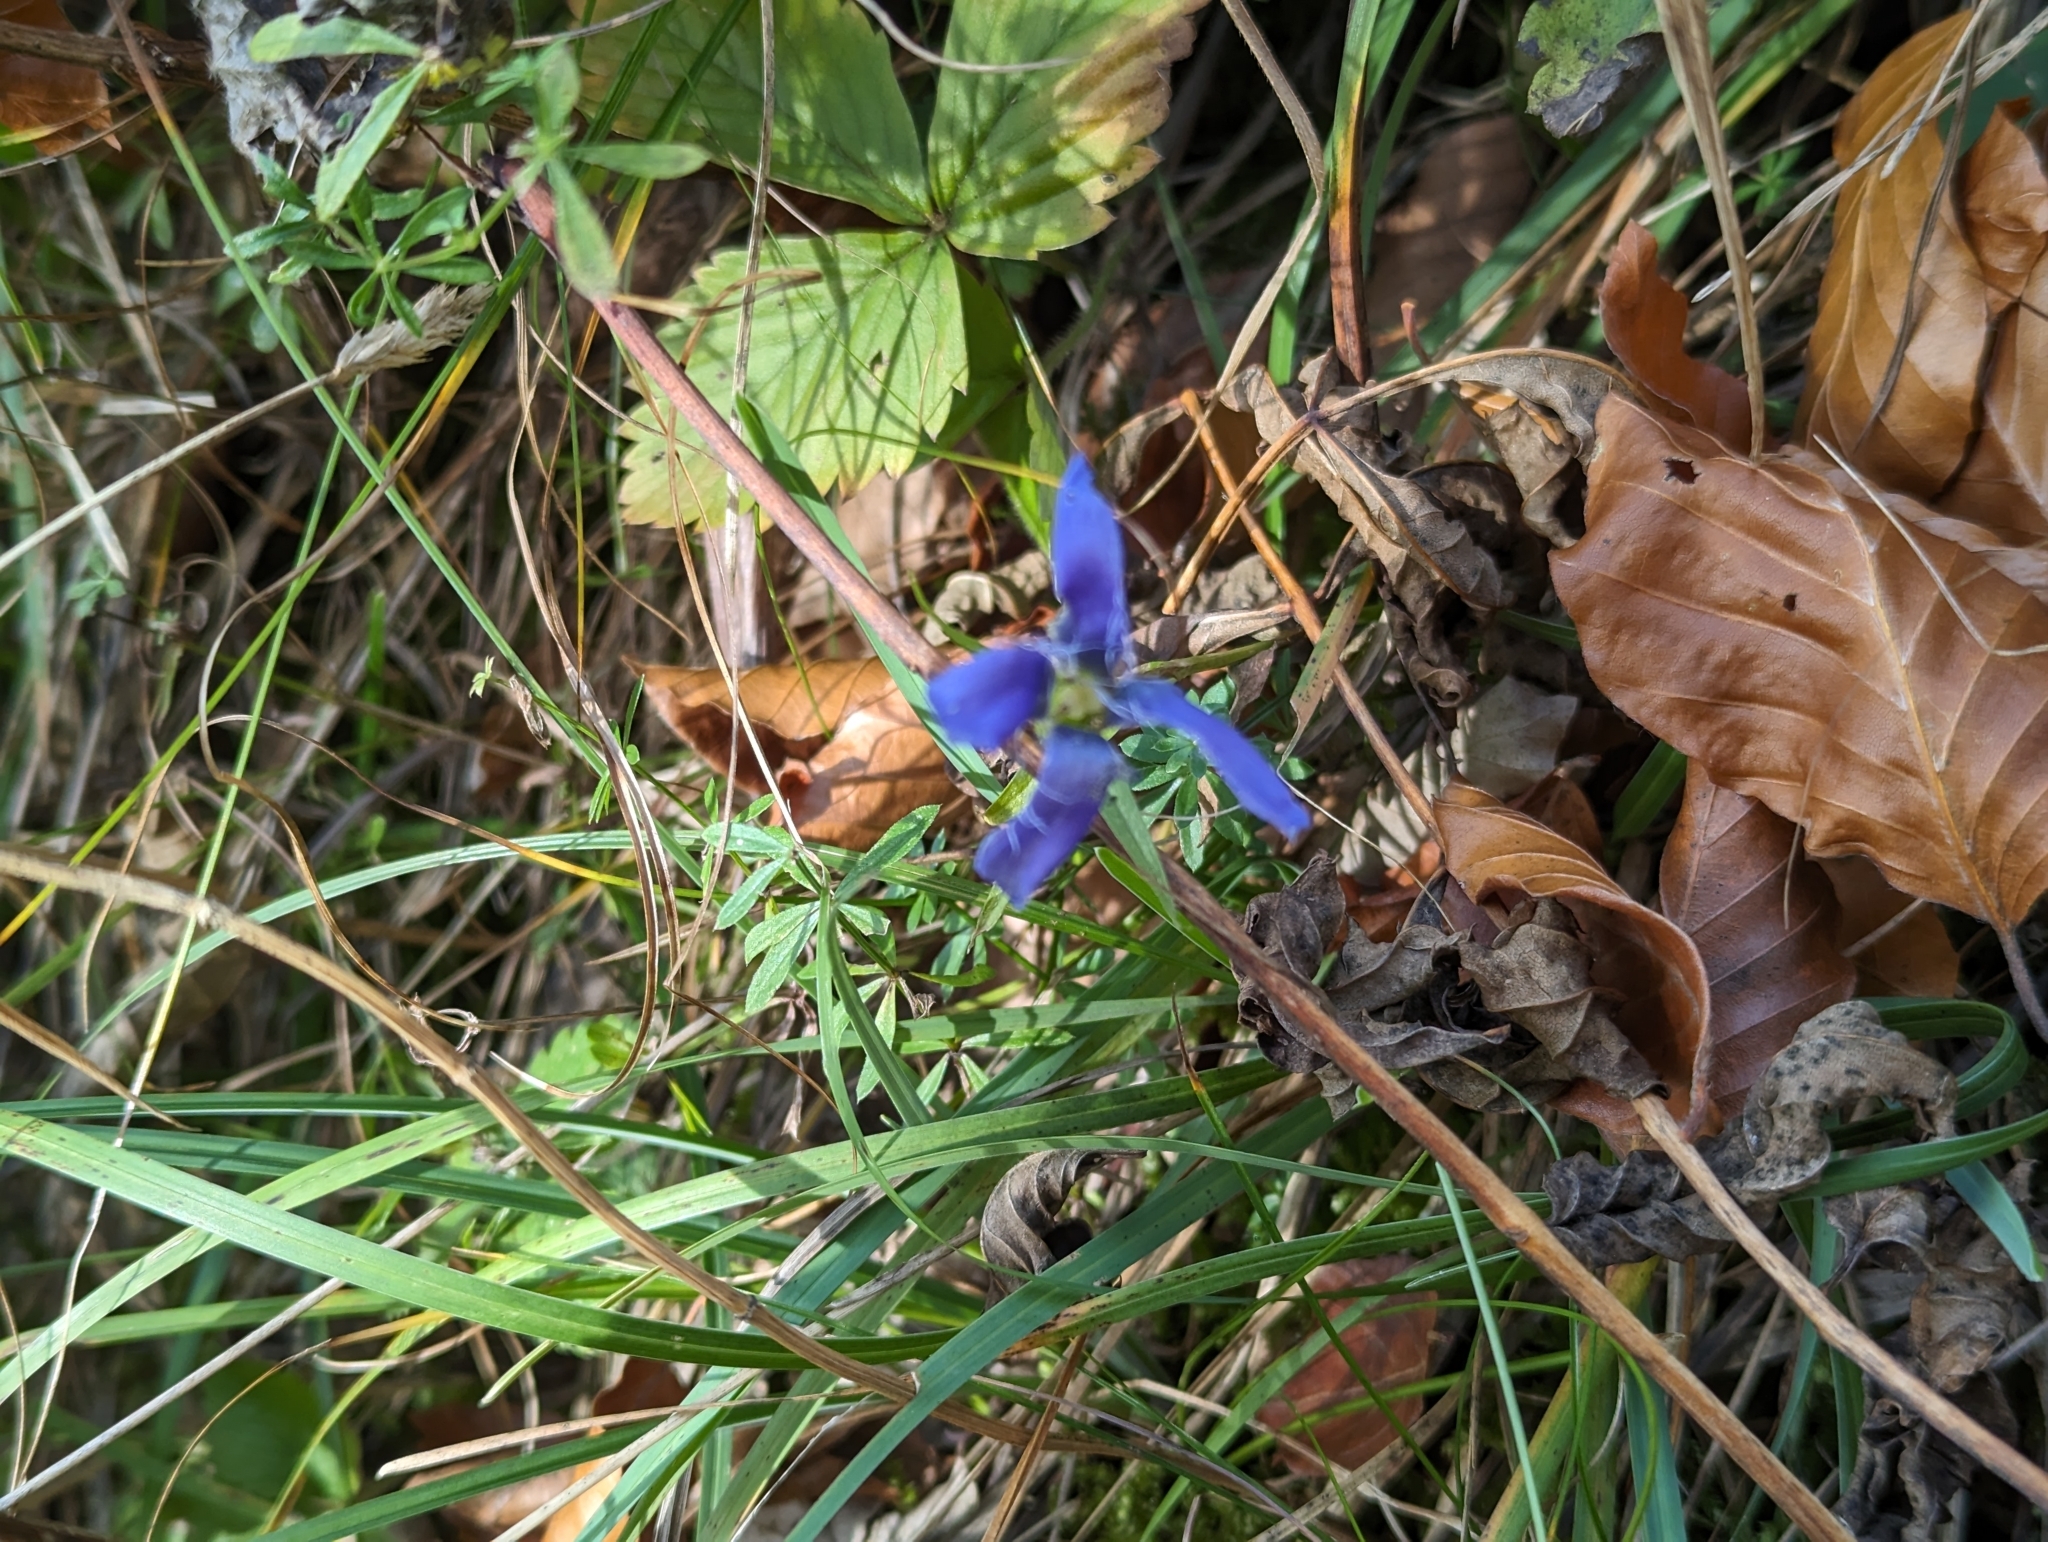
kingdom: Plantae
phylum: Tracheophyta
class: Magnoliopsida
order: Gentianales
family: Gentianaceae
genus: Gentianopsis
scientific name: Gentianopsis ciliata
